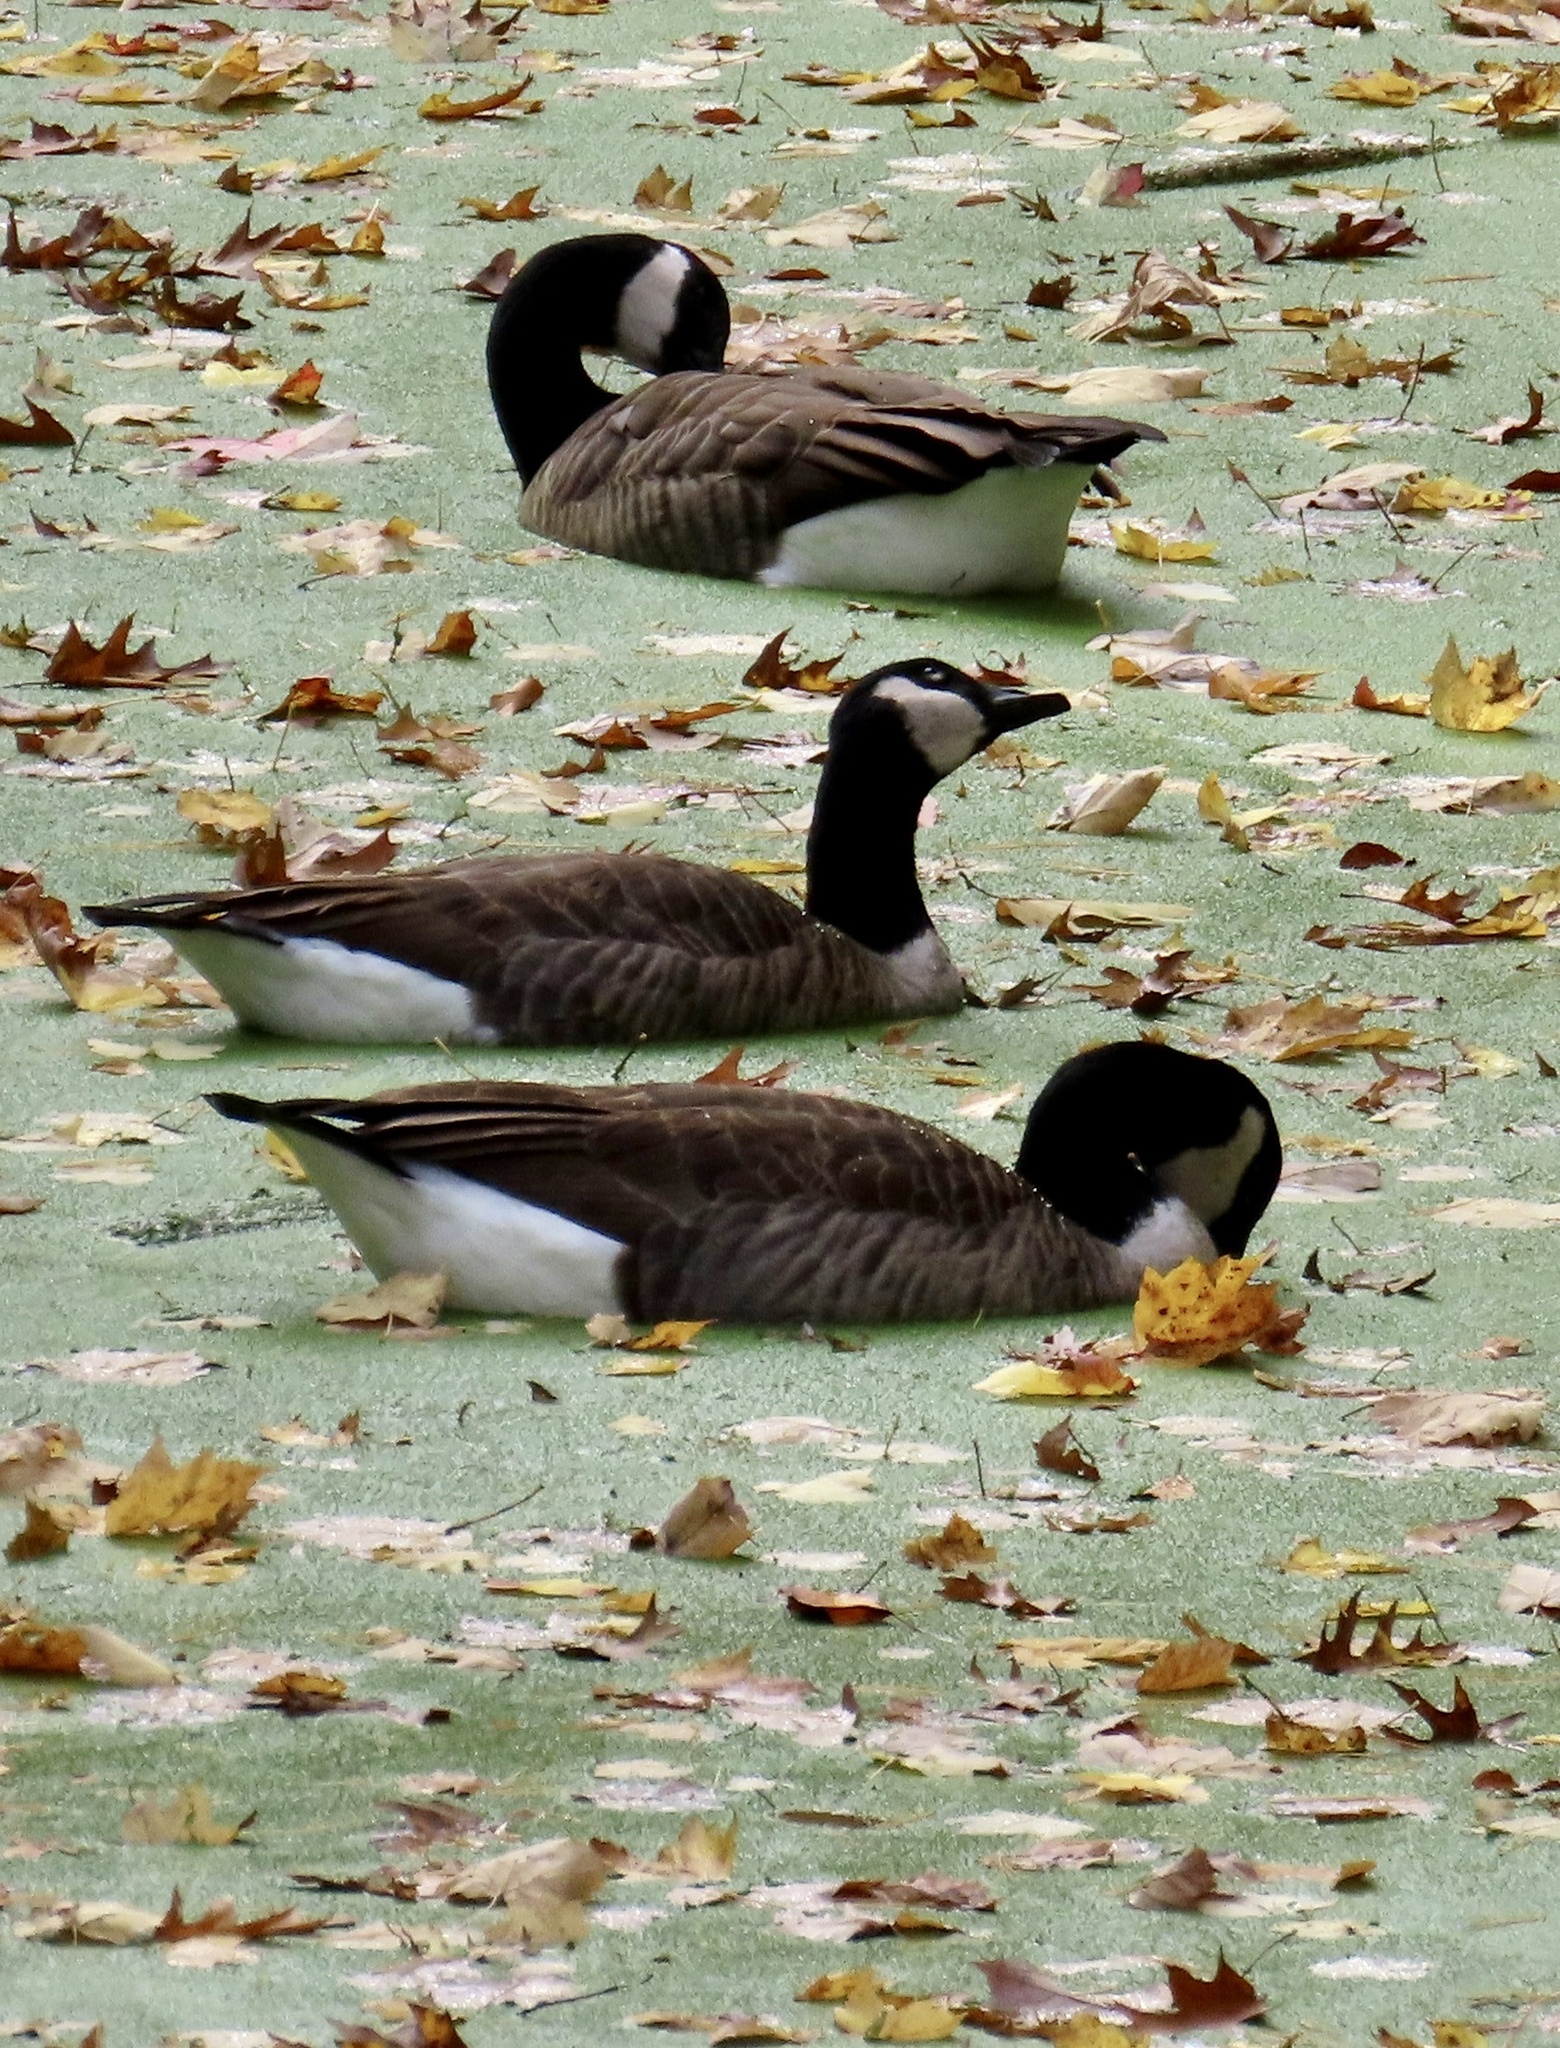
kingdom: Animalia
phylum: Chordata
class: Aves
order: Anseriformes
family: Anatidae
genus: Branta
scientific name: Branta canadensis
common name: Canada goose
